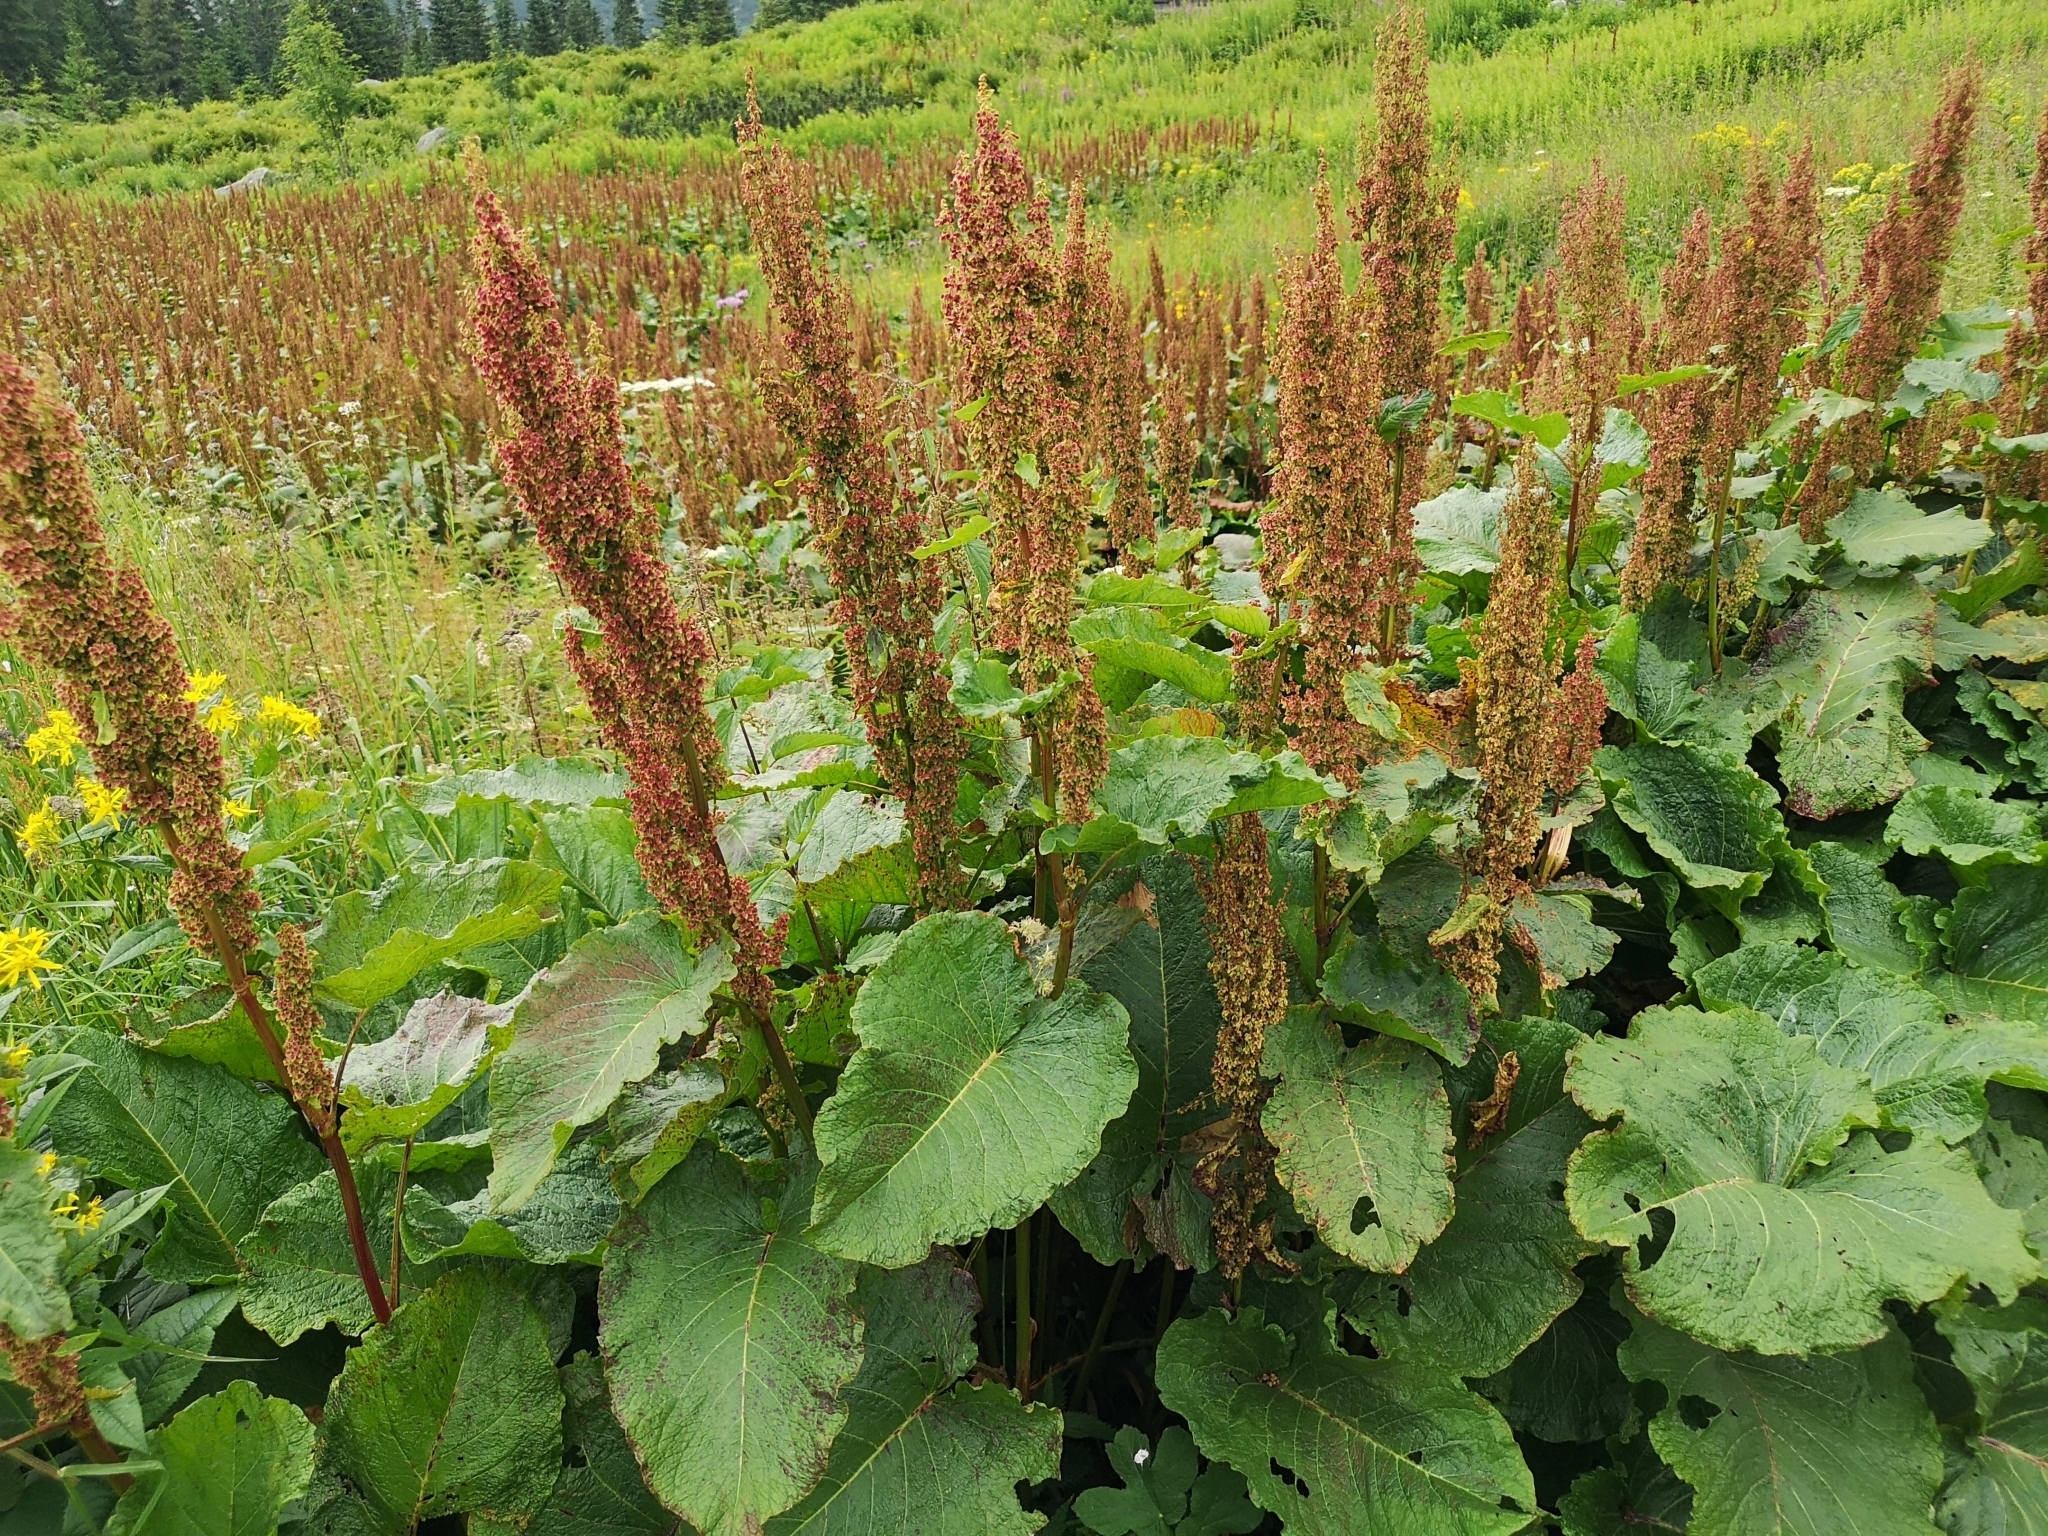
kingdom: Plantae
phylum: Tracheophyta
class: Magnoliopsida
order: Caryophyllales
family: Polygonaceae
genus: Rumex
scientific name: Rumex alpinus
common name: Alpine dock
